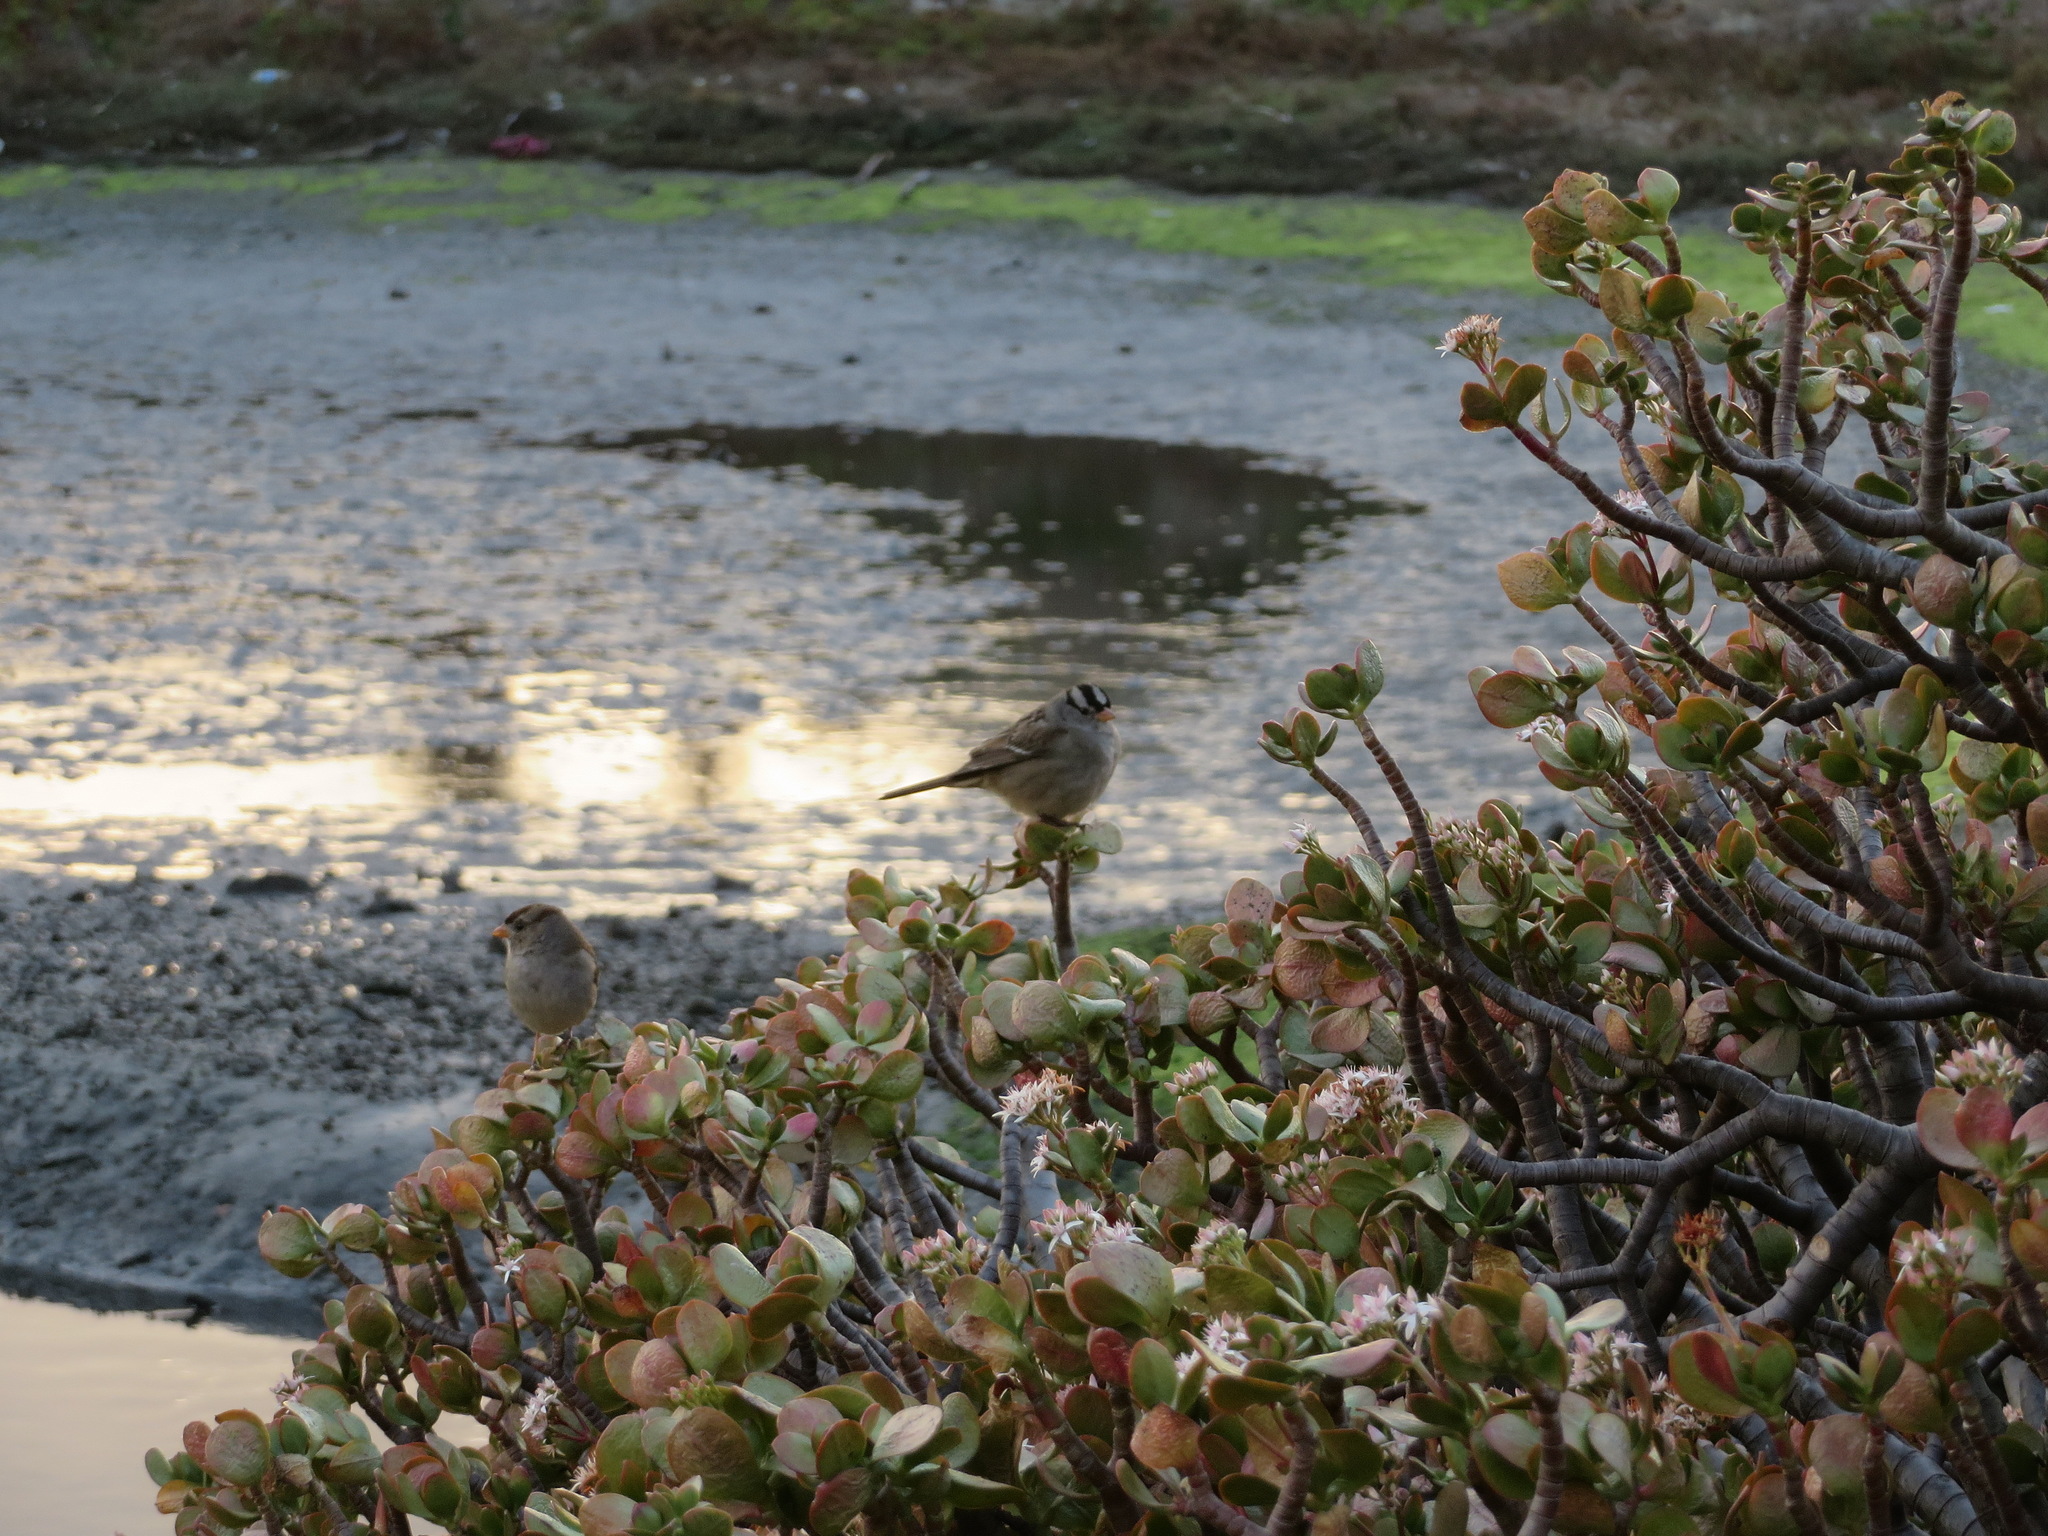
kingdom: Animalia
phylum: Chordata
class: Aves
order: Passeriformes
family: Passerellidae
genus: Zonotrichia
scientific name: Zonotrichia leucophrys
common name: White-crowned sparrow
